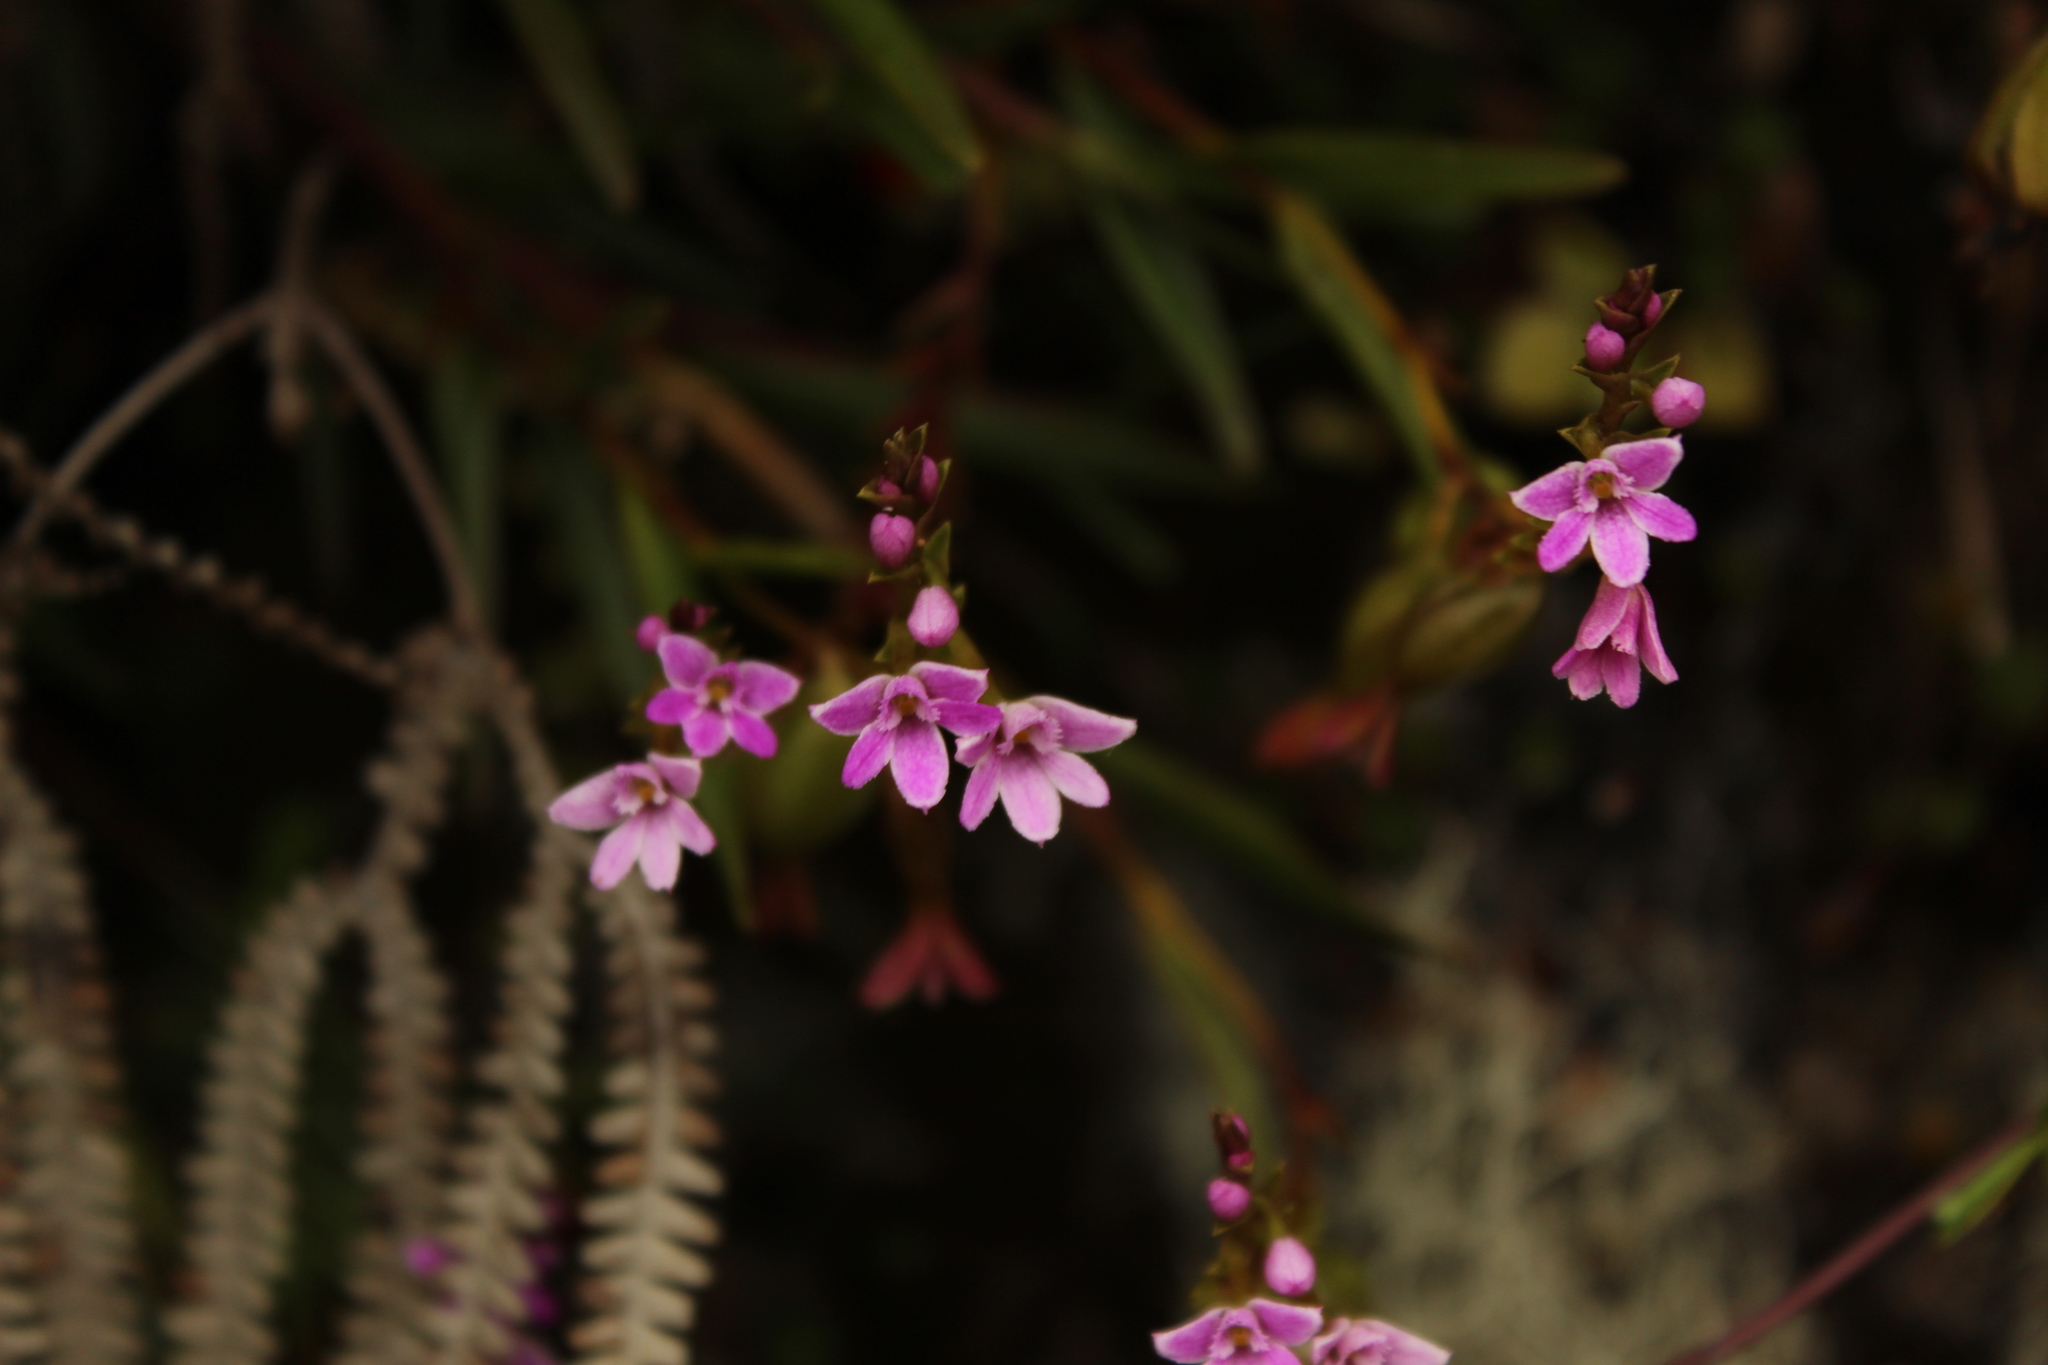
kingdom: Plantae
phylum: Tracheophyta
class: Liliopsida
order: Asparagales
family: Orchidaceae
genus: Epidendrum
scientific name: Epidendrum fimbriatum
